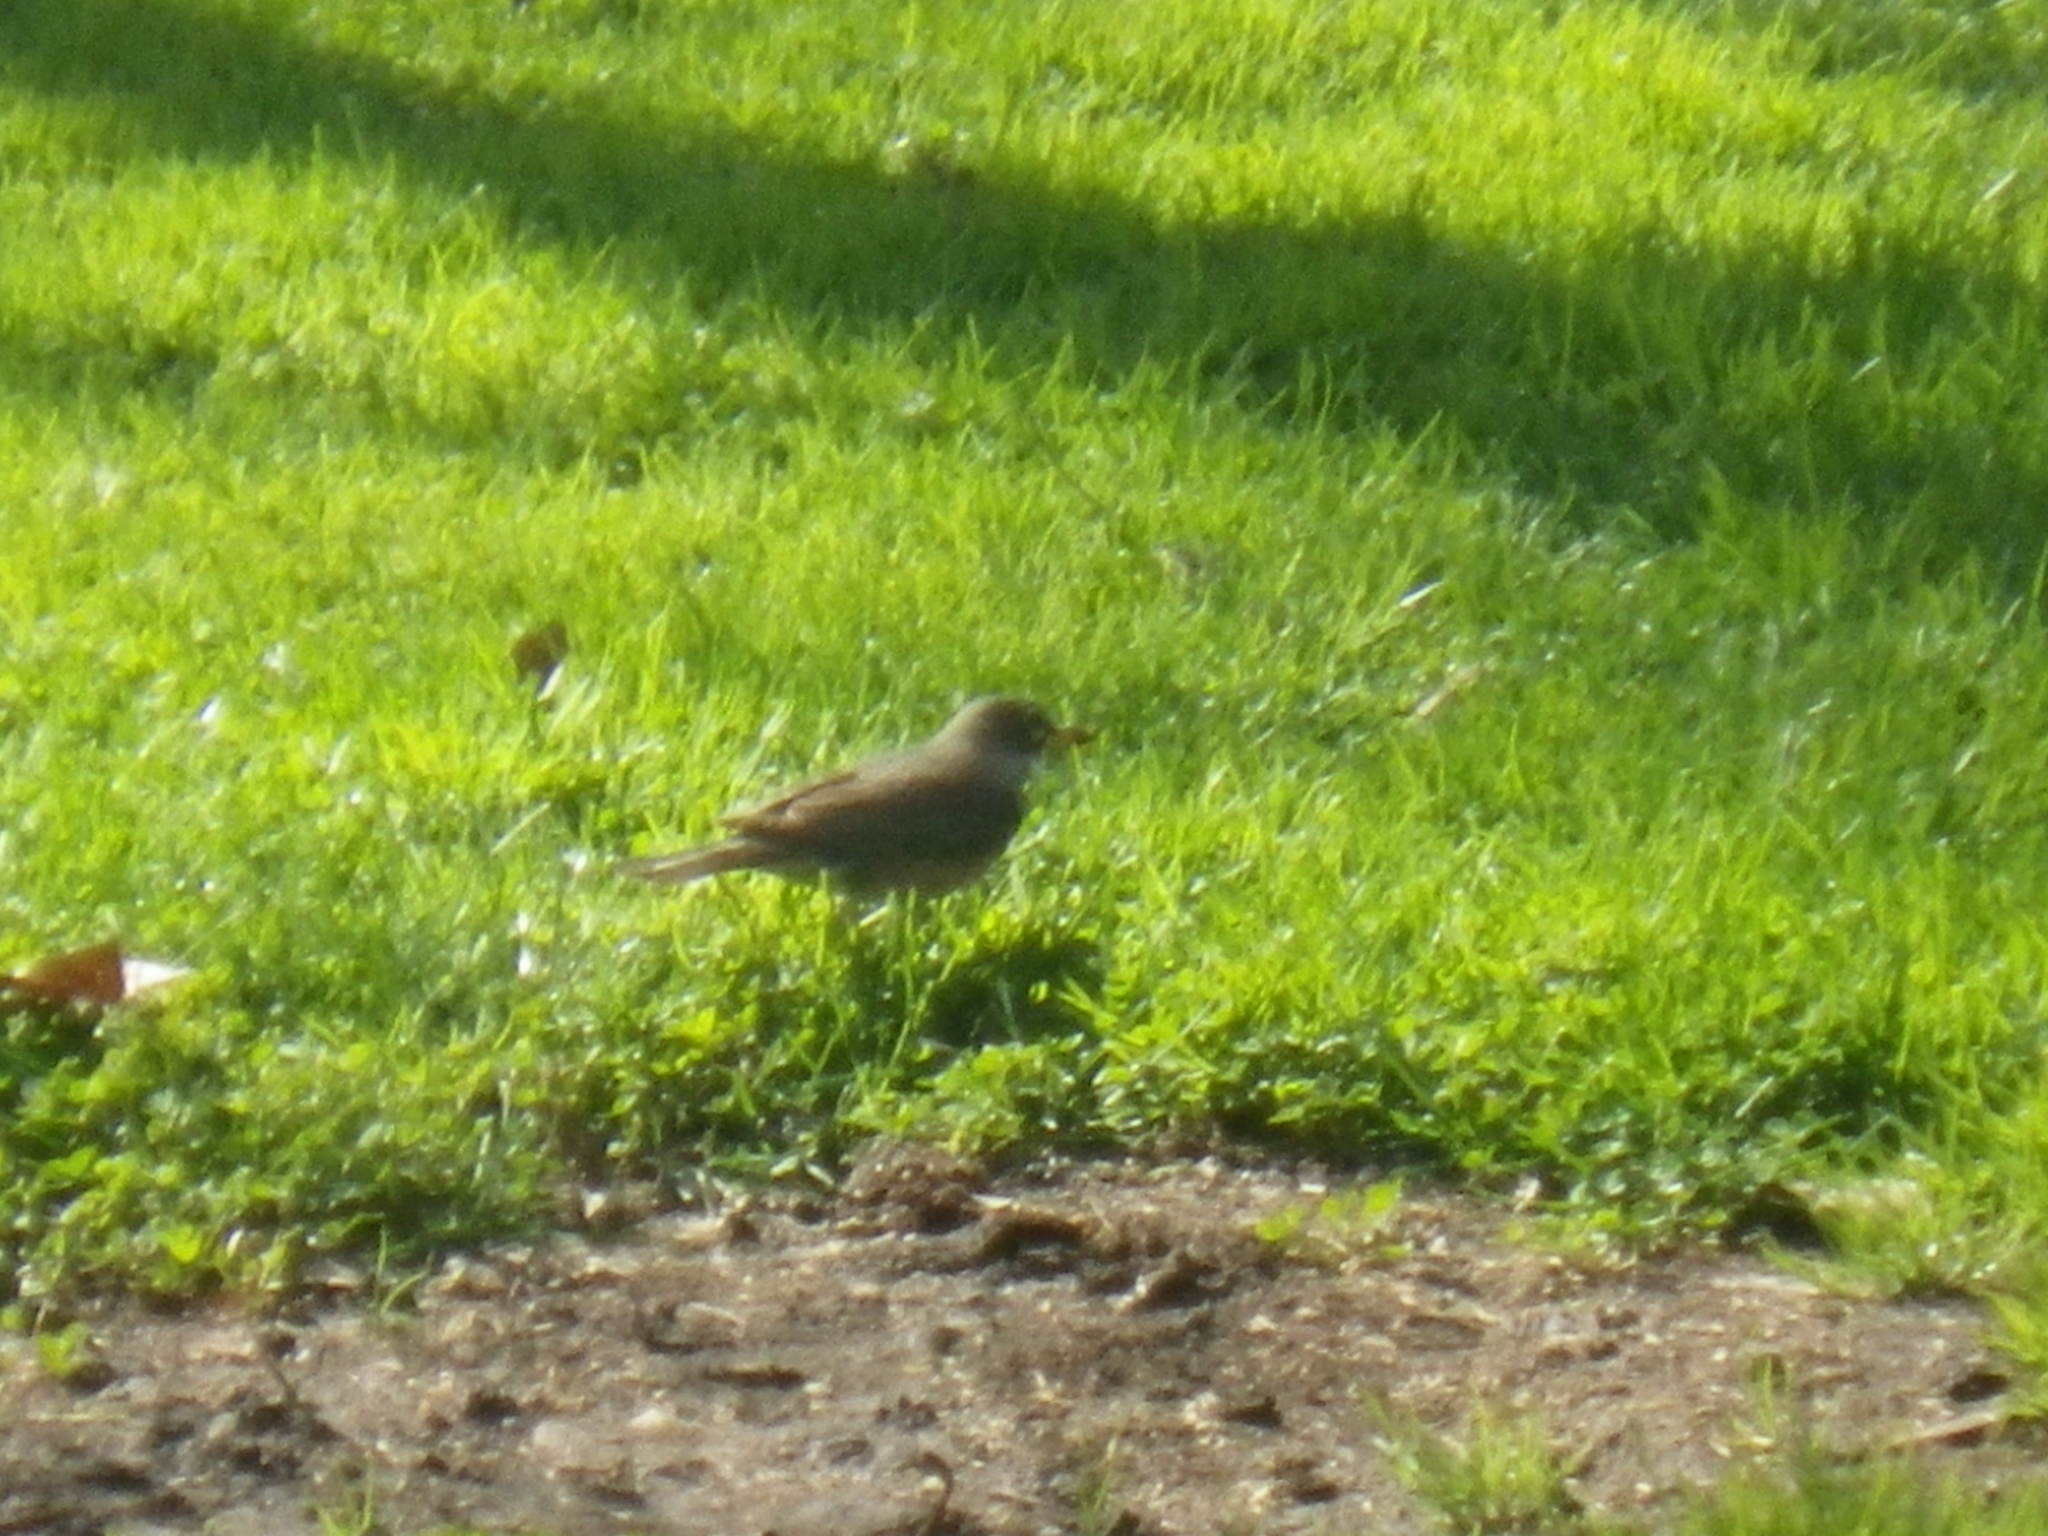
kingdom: Animalia
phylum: Chordata
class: Aves
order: Passeriformes
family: Turdidae
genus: Turdus
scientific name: Turdus migratorius
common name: American robin
